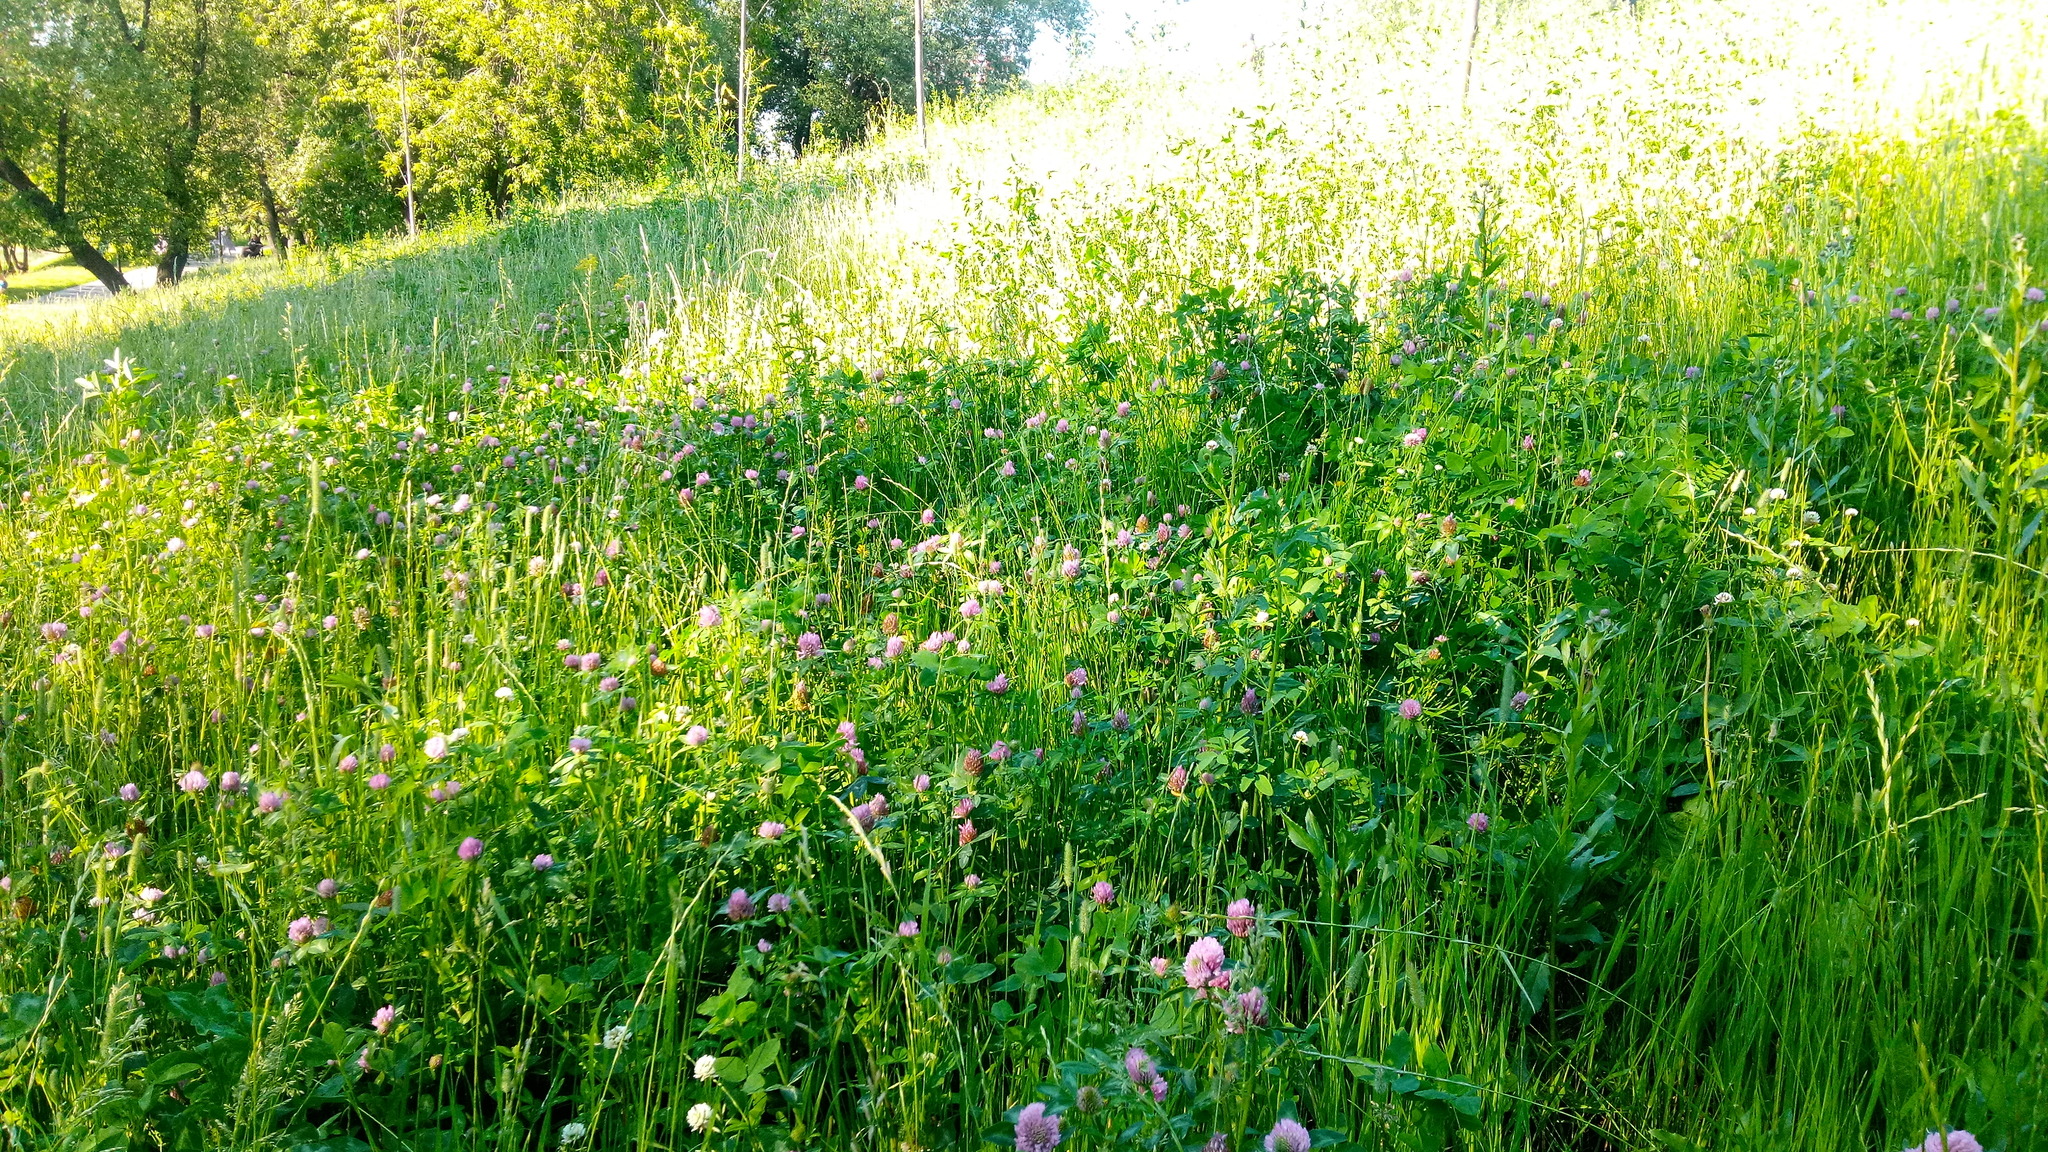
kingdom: Plantae
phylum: Tracheophyta
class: Magnoliopsida
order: Fabales
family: Fabaceae
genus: Trifolium
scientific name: Trifolium pratense
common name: Red clover
